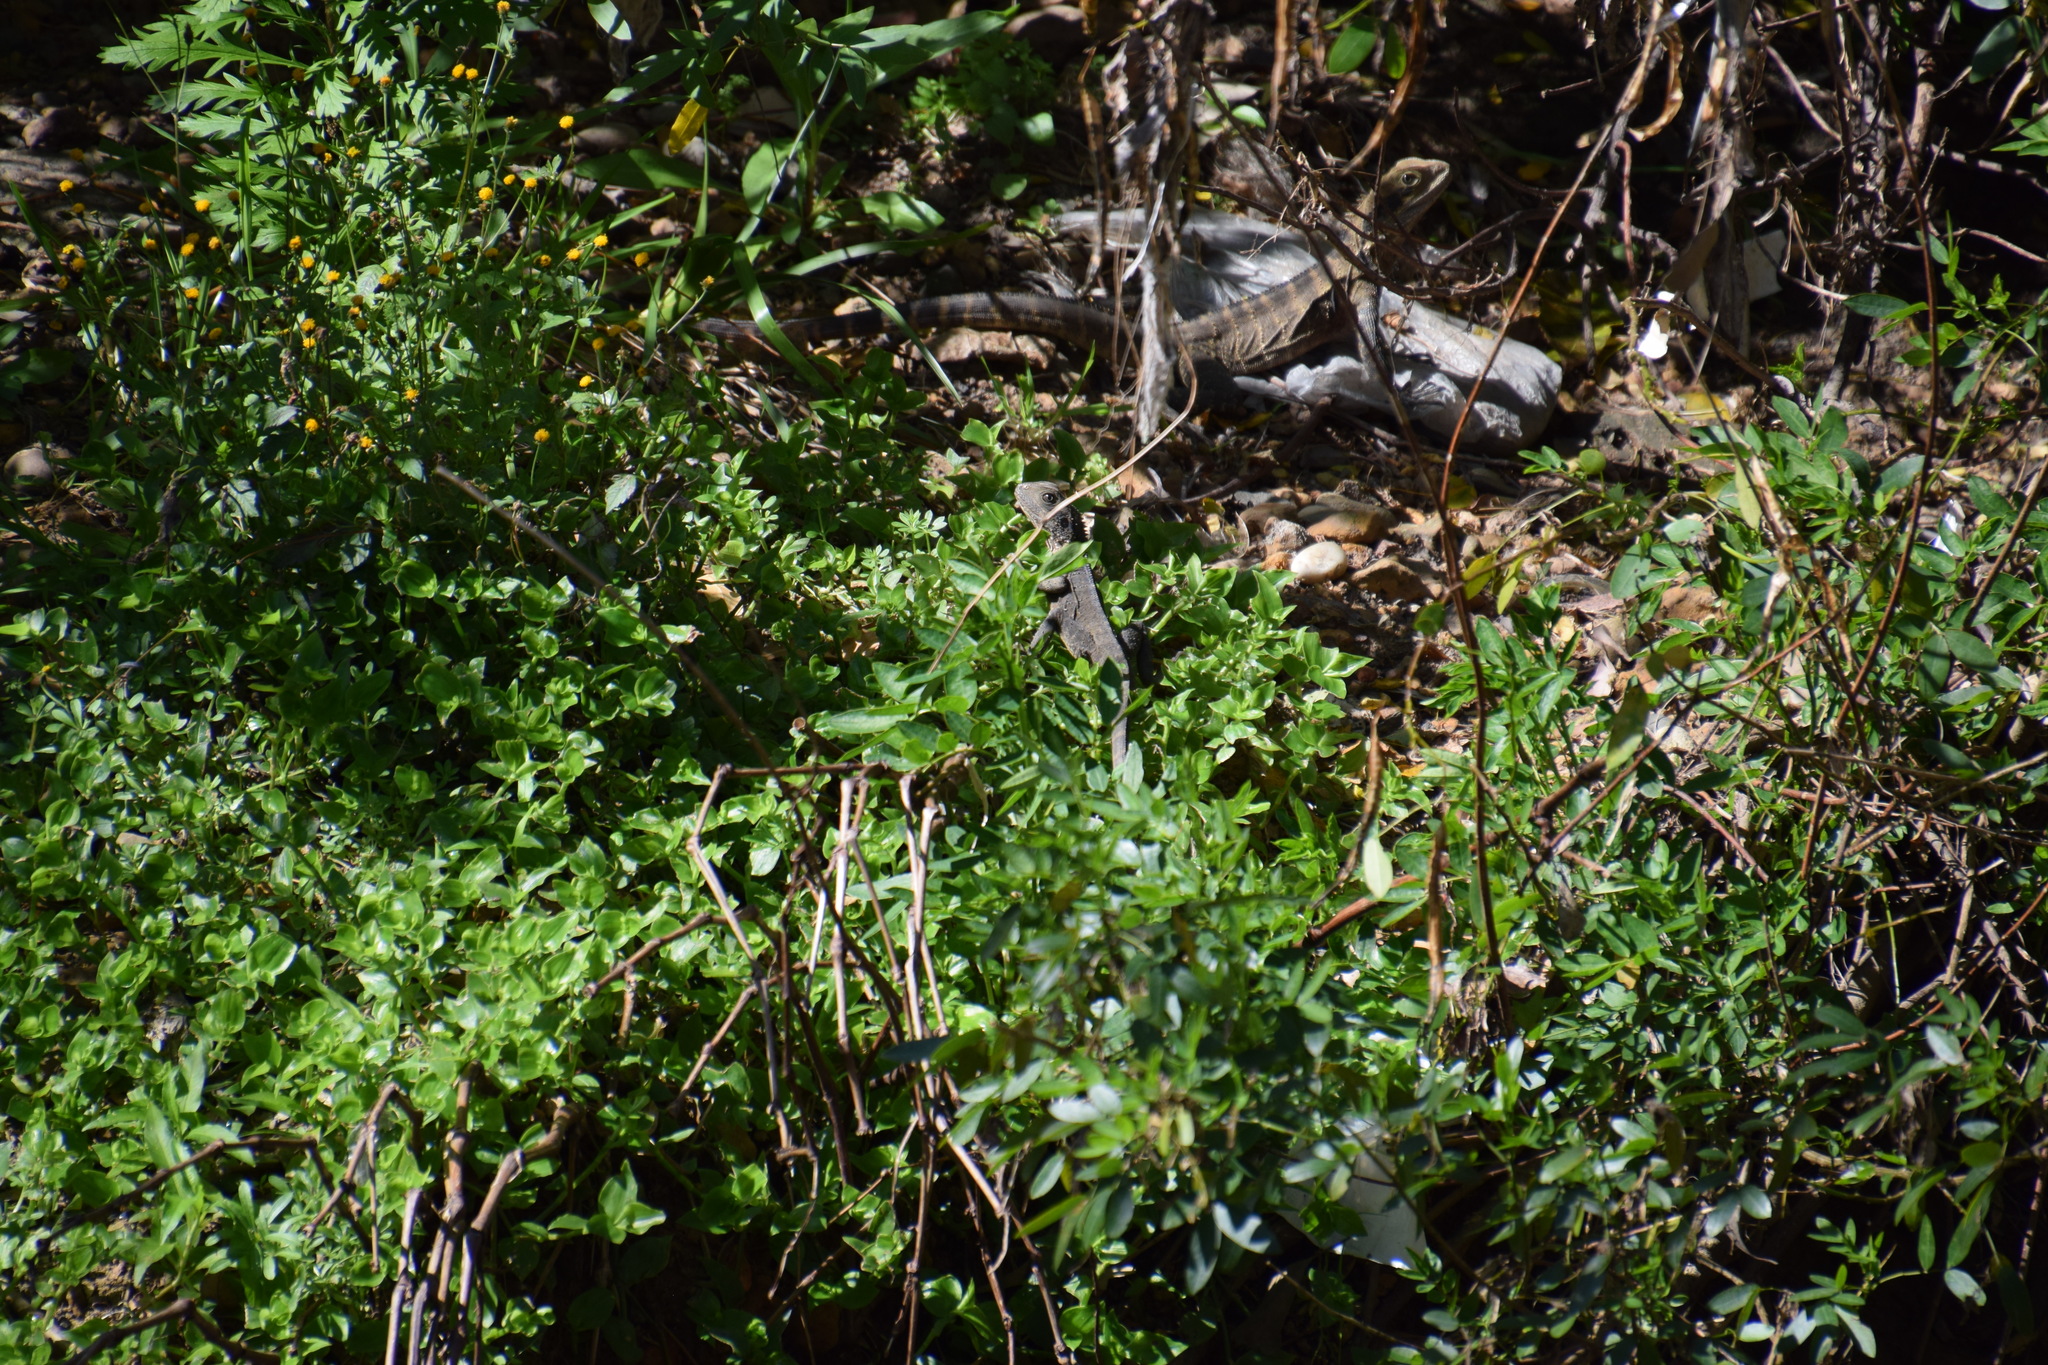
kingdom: Animalia
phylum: Chordata
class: Squamata
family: Agamidae
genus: Intellagama
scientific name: Intellagama lesueurii
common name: Eastern water dragon
